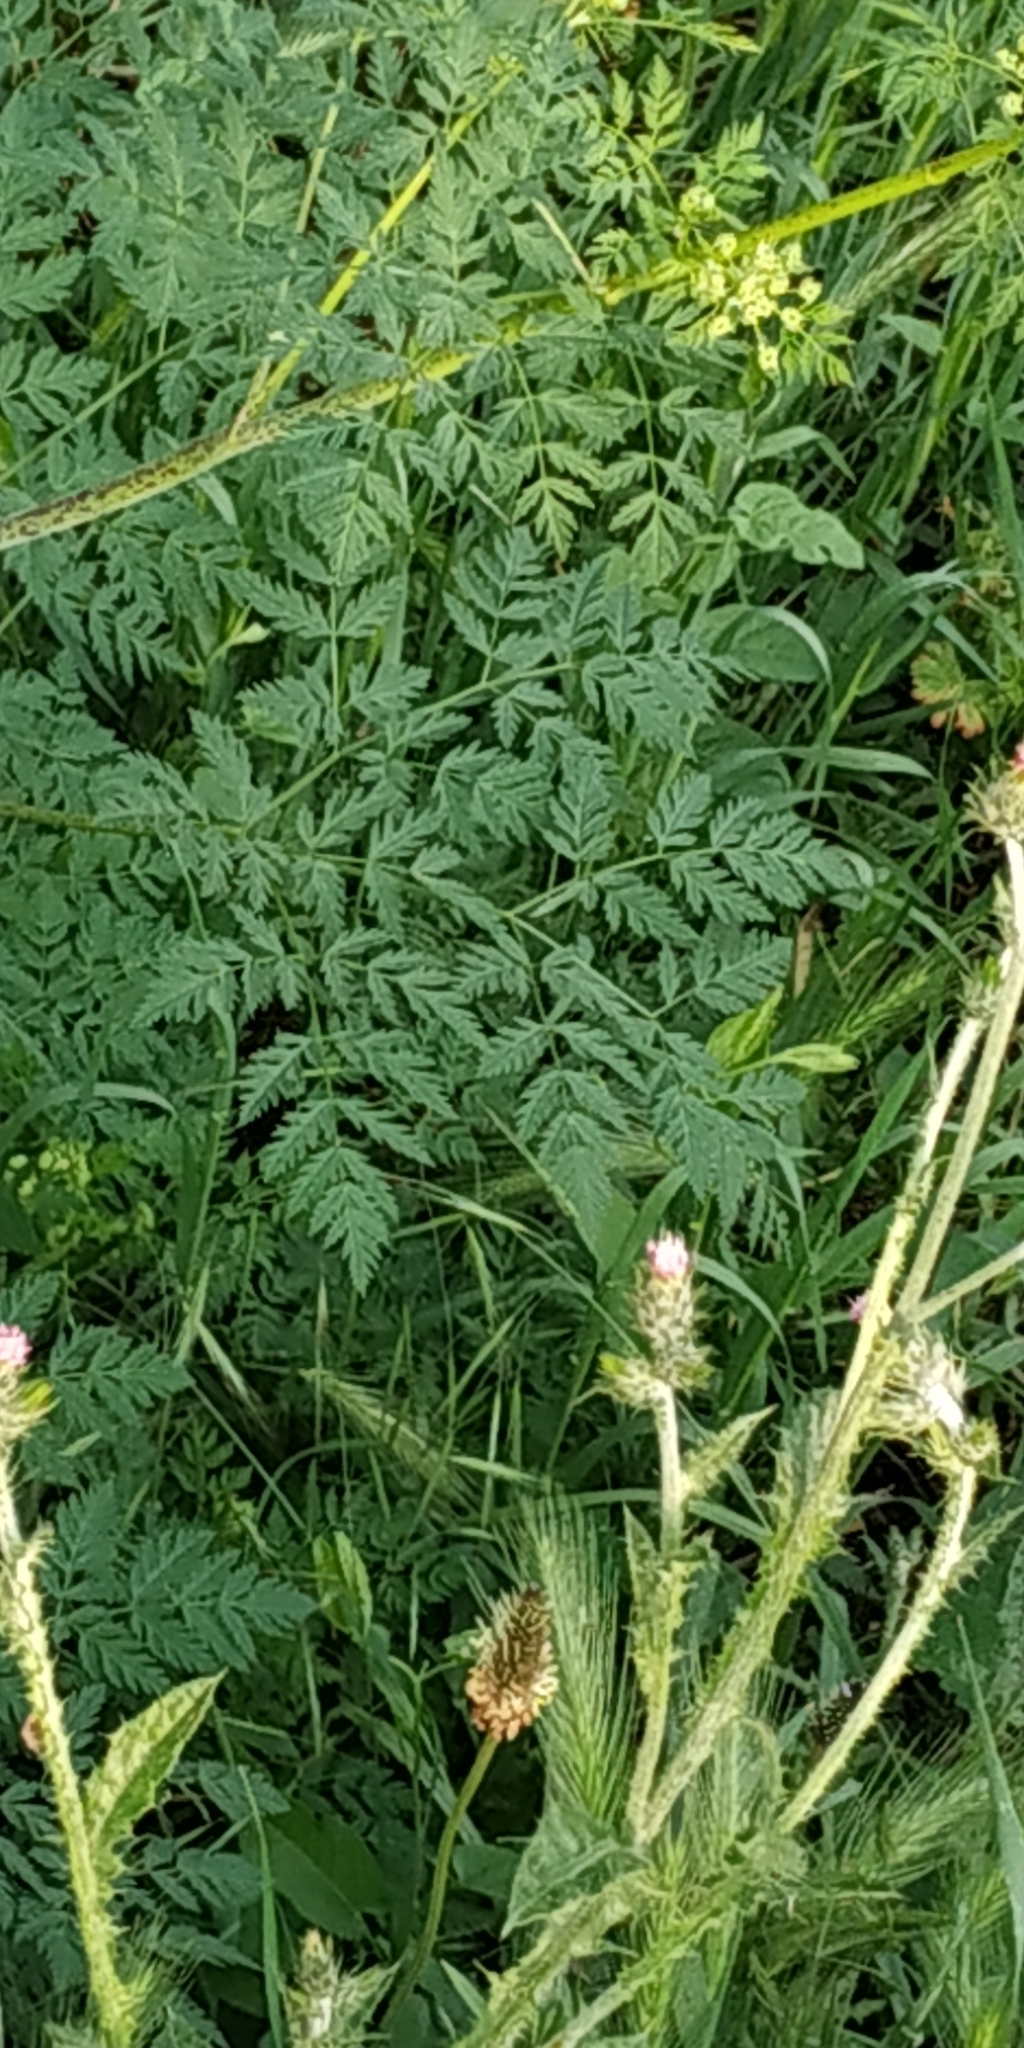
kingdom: Plantae
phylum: Tracheophyta
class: Magnoliopsida
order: Apiales
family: Apiaceae
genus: Conium
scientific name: Conium maculatum
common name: Hemlock
